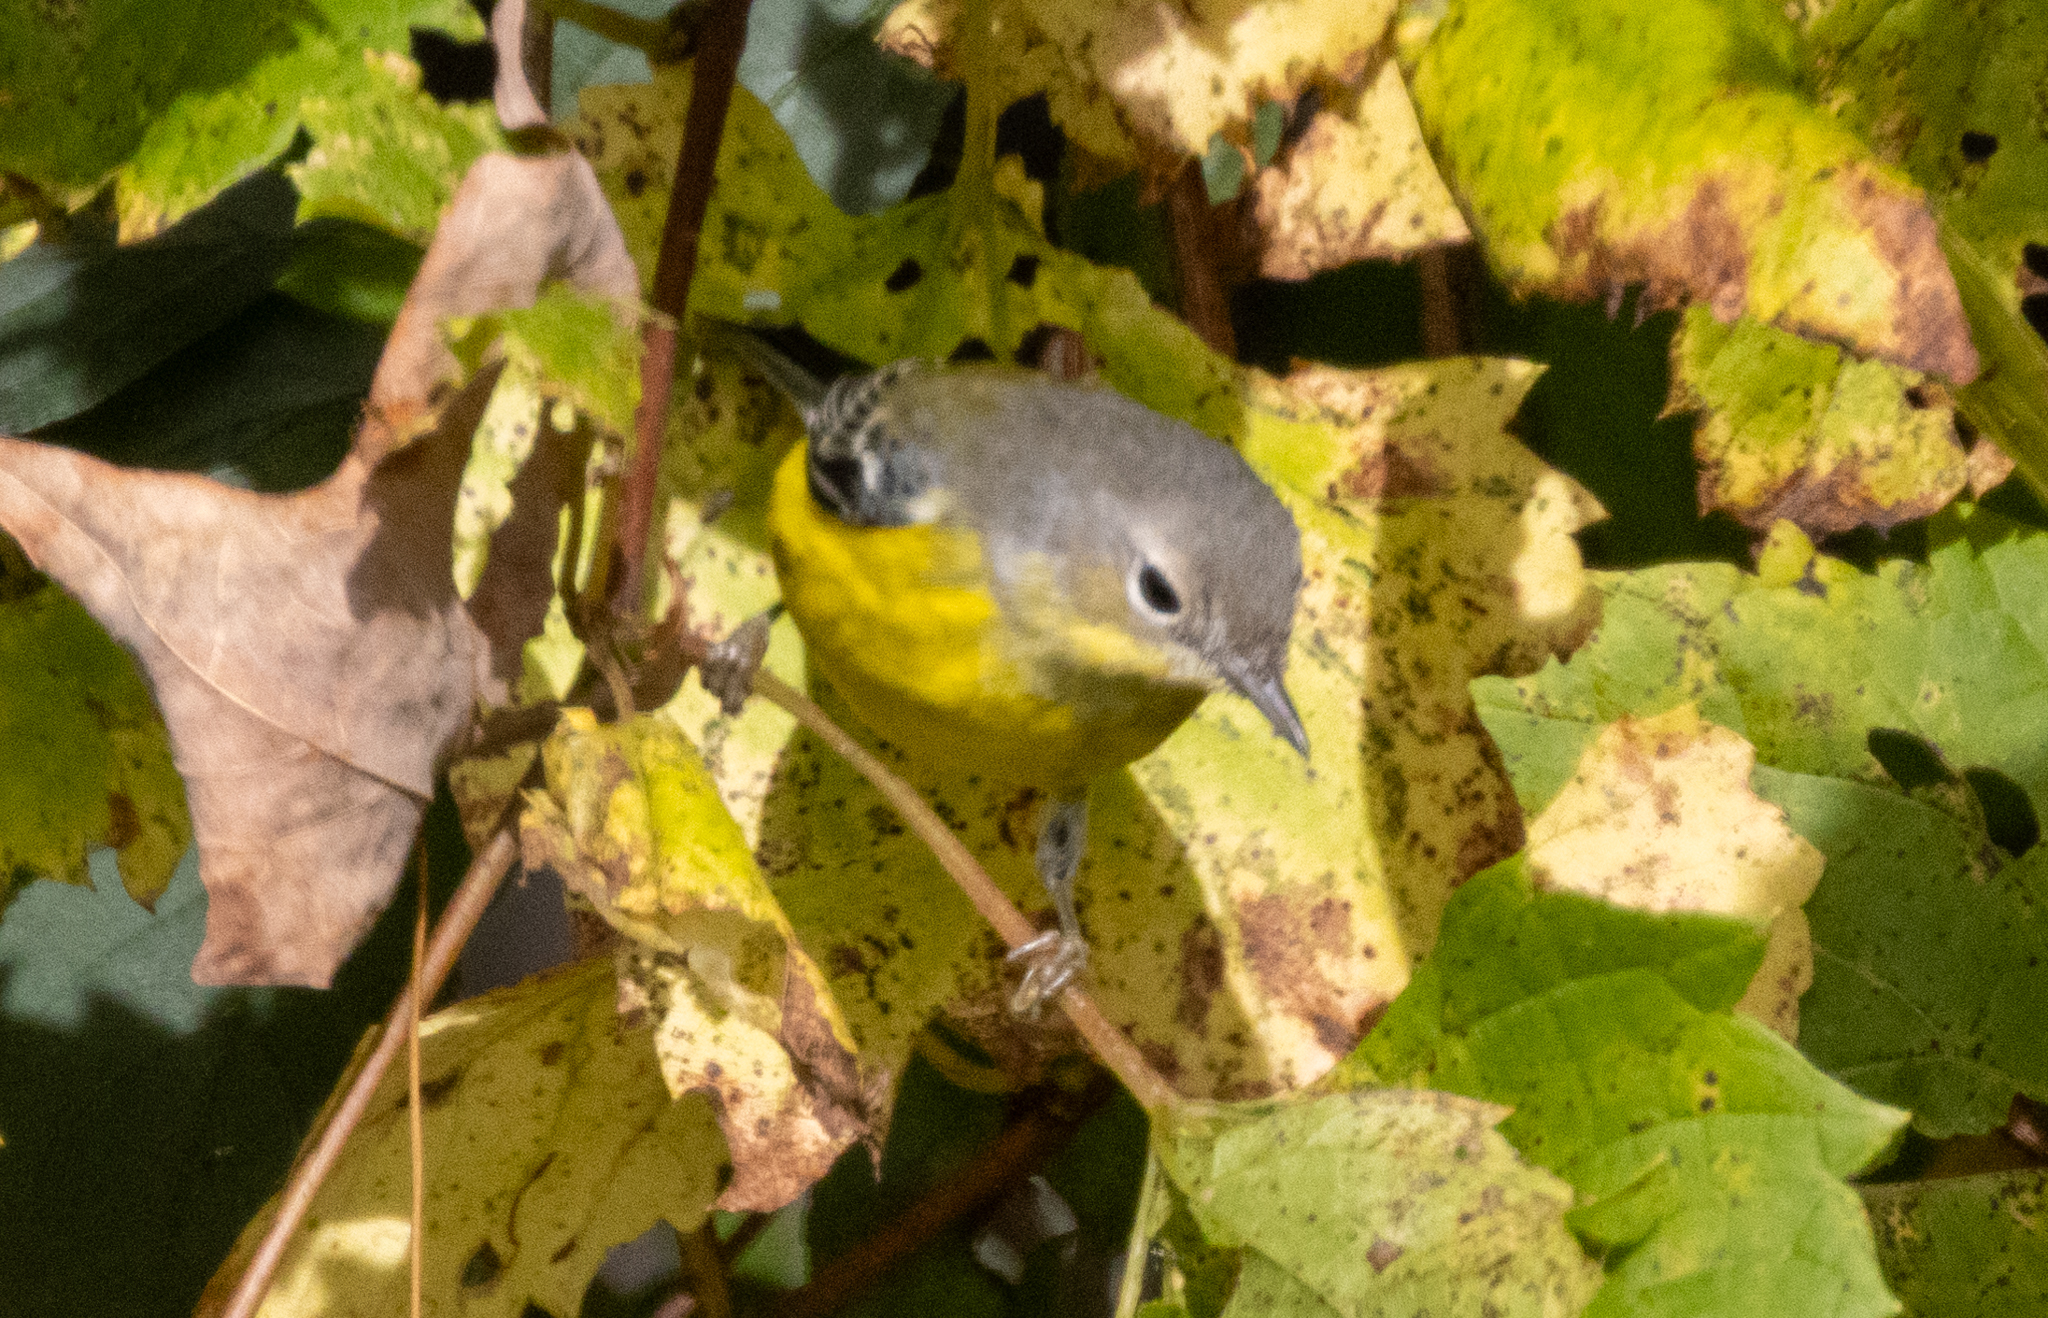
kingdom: Animalia
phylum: Chordata
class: Aves
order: Passeriformes
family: Parulidae
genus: Setophaga
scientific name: Setophaga magnolia
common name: Magnolia warbler
